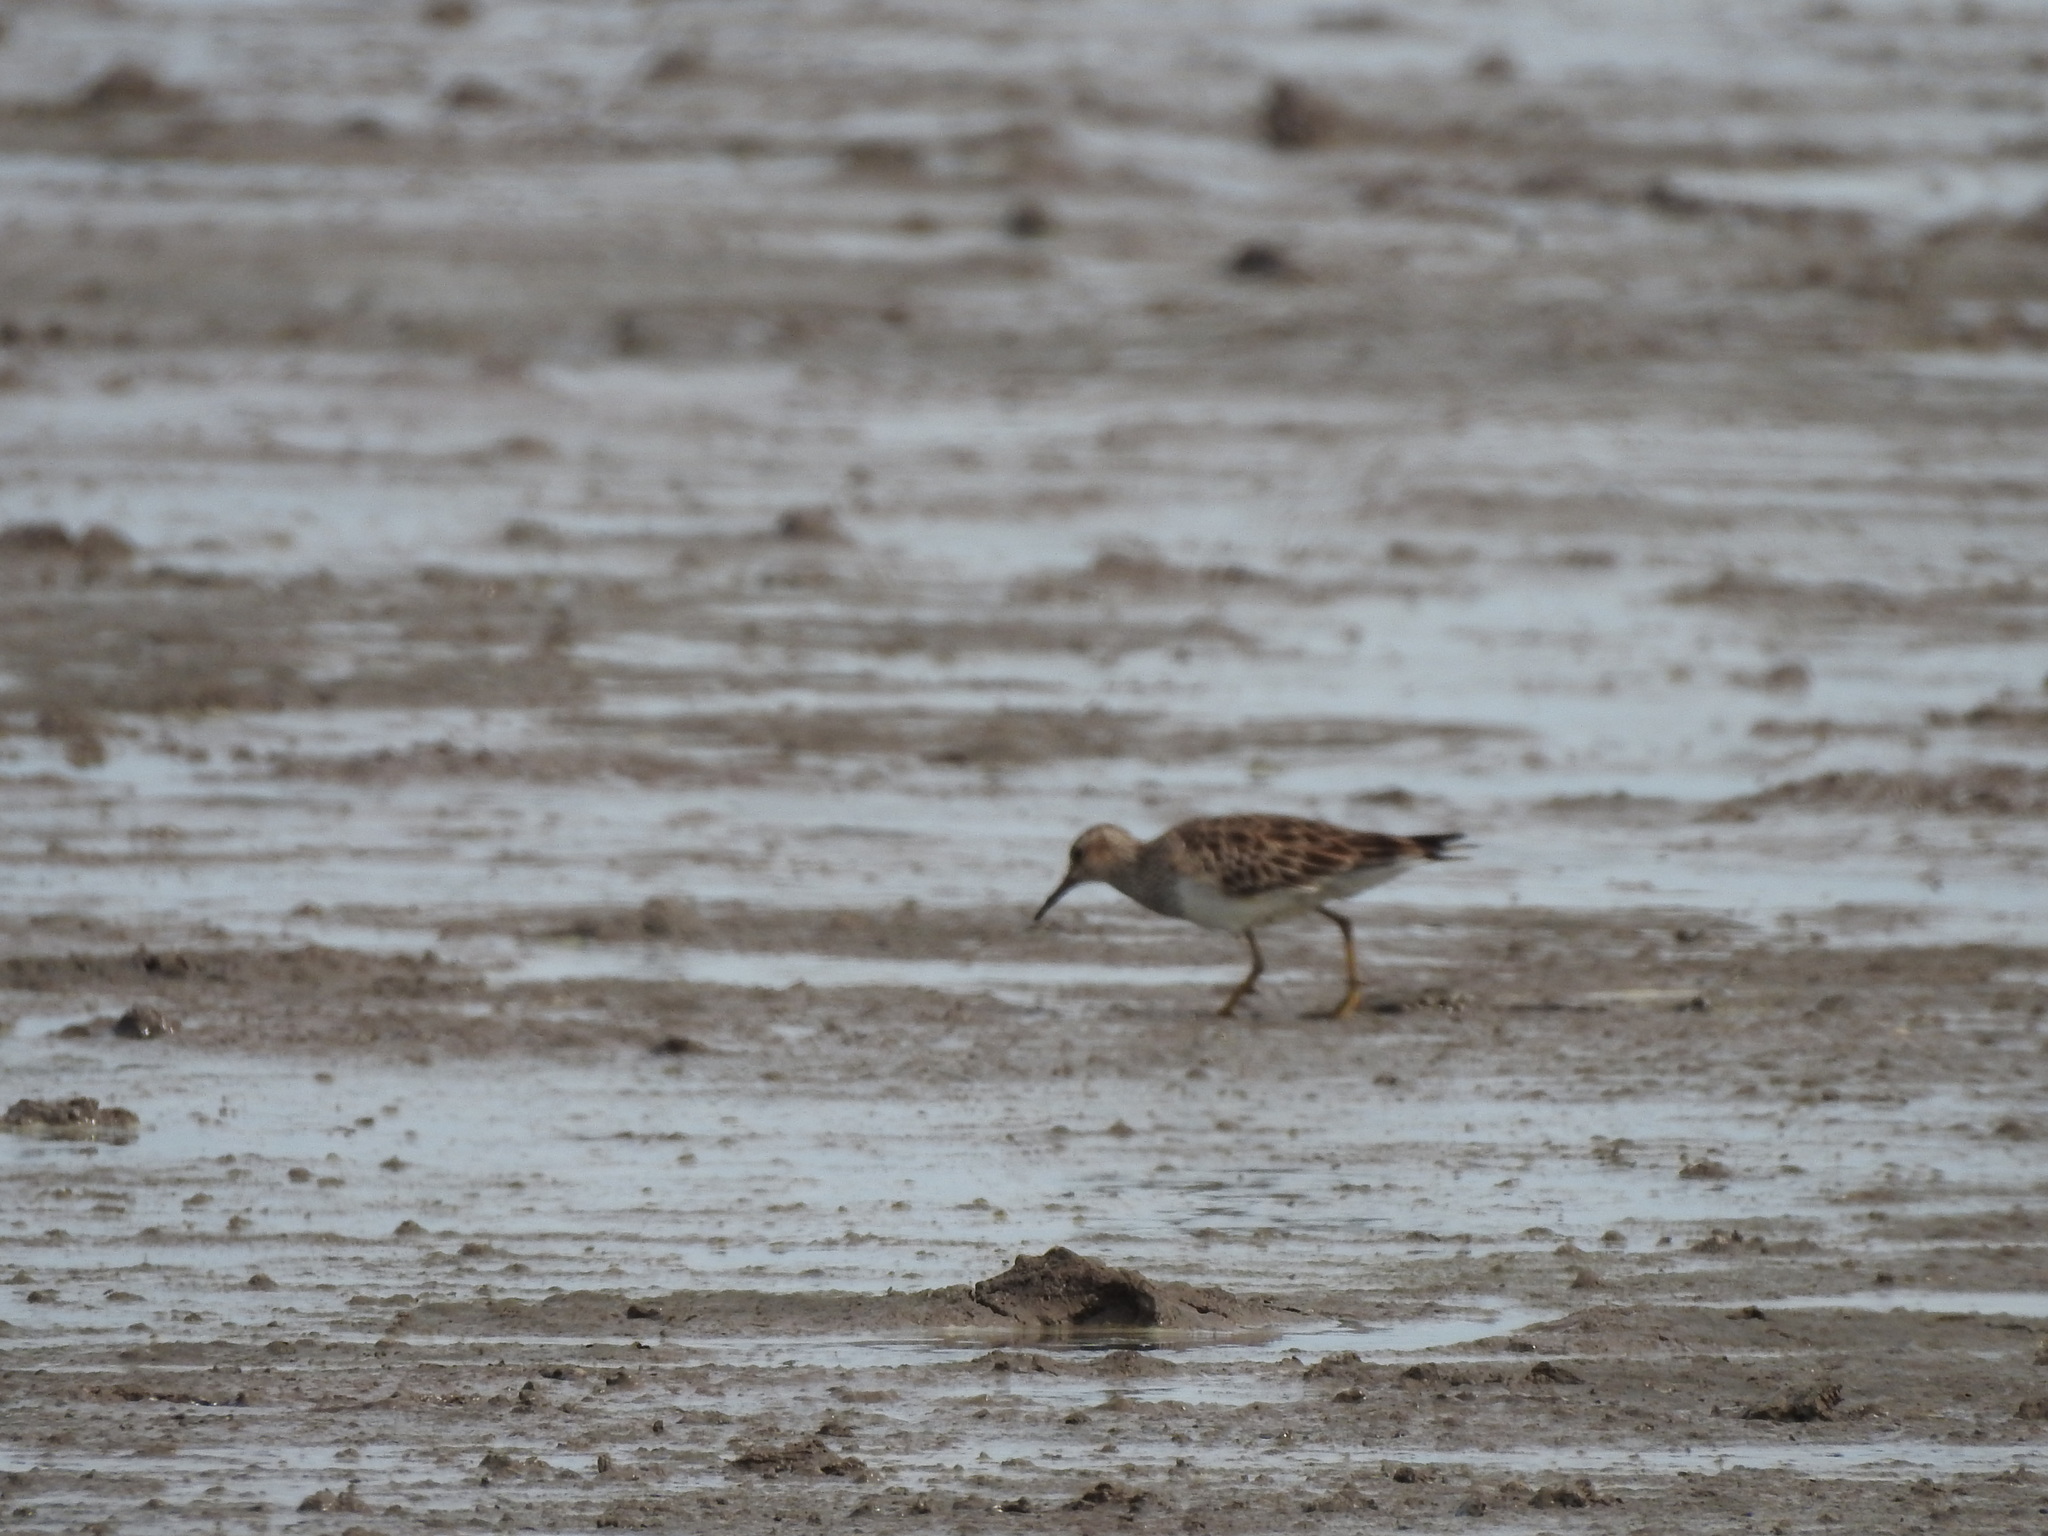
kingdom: Animalia
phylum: Chordata
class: Aves
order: Charadriiformes
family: Scolopacidae
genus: Calidris
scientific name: Calidris melanotos
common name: Pectoral sandpiper
